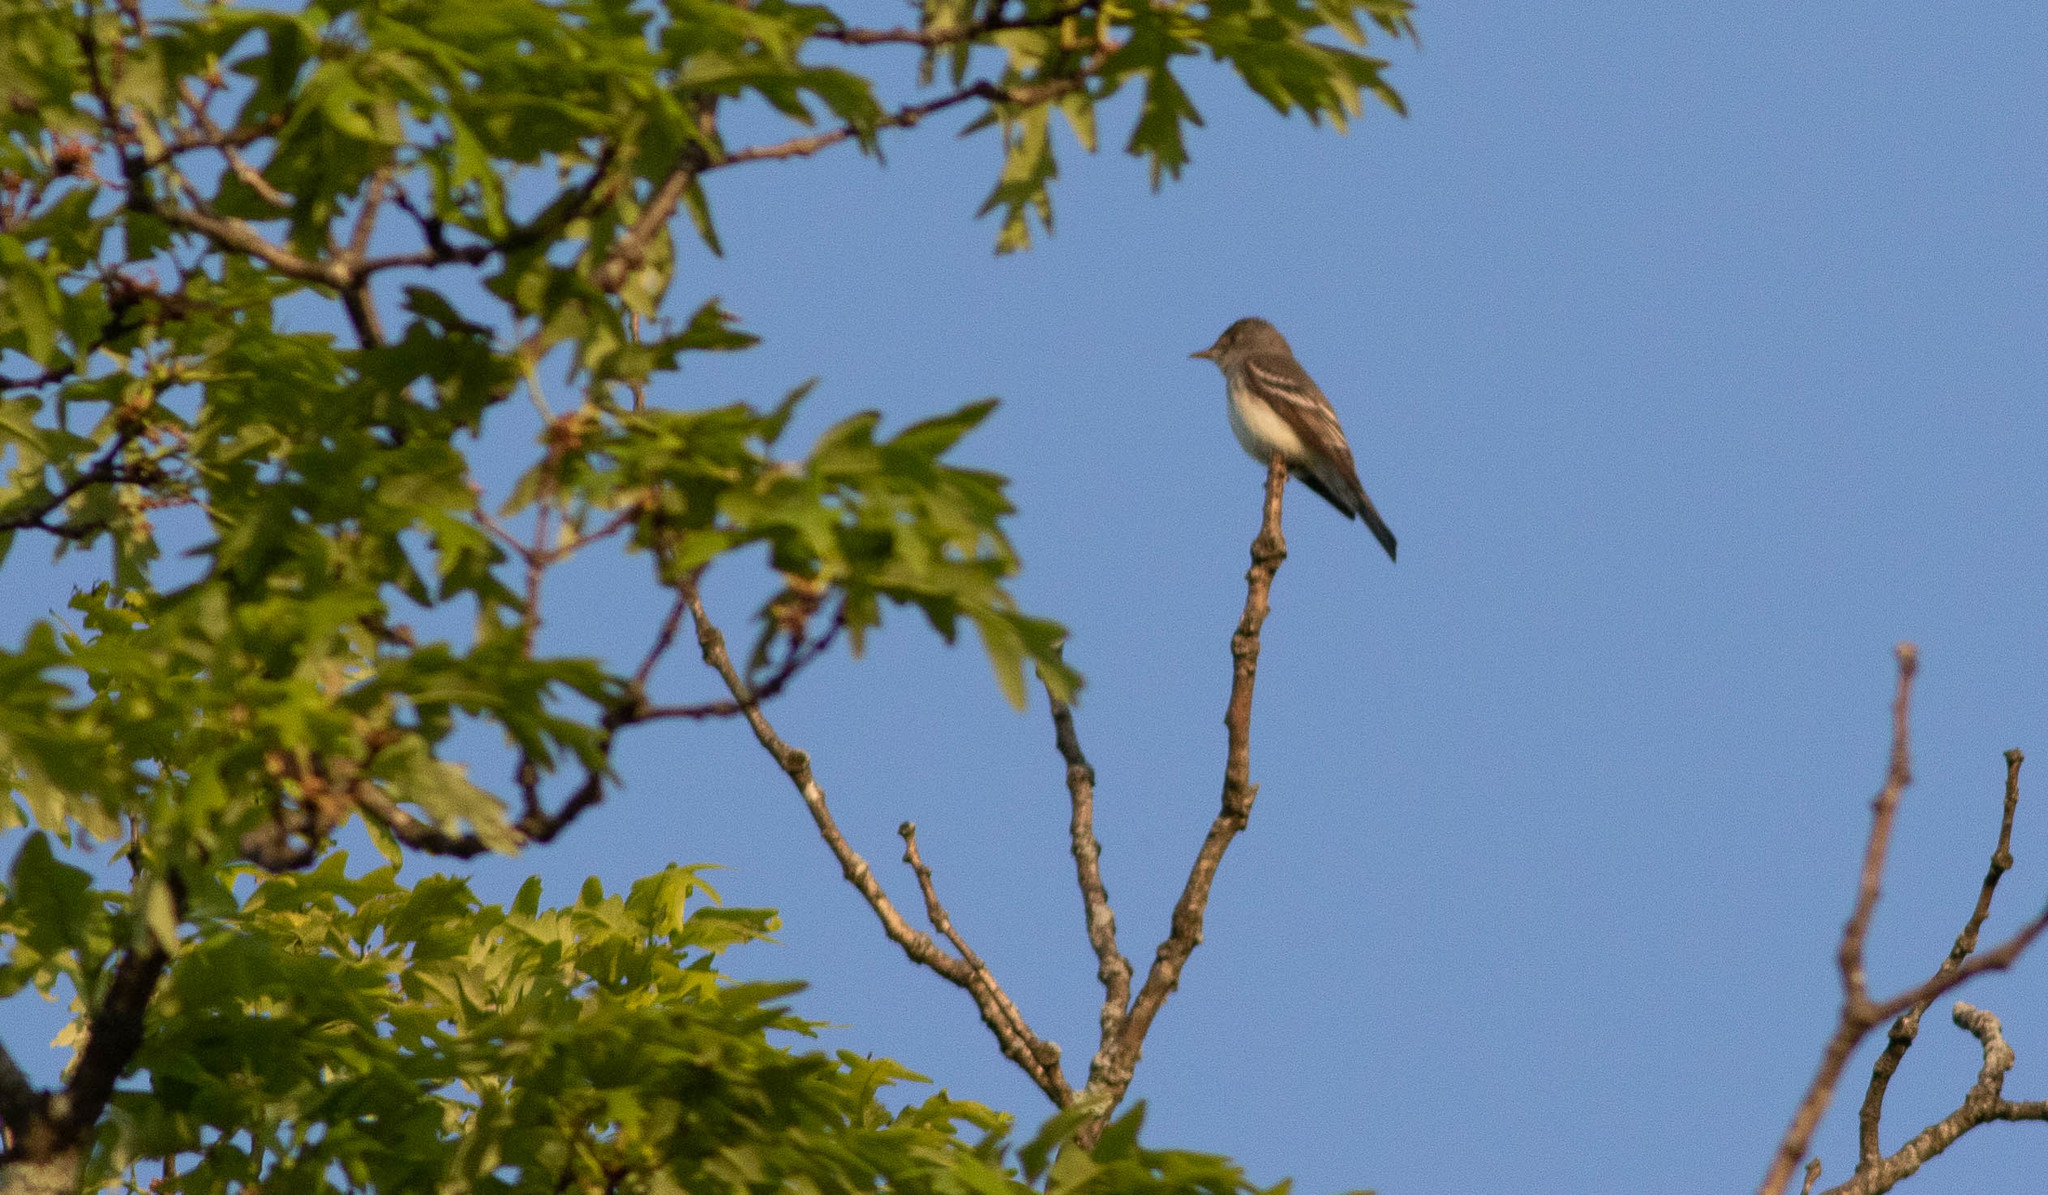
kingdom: Animalia
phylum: Chordata
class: Aves
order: Passeriformes
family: Tyrannidae
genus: Contopus
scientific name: Contopus virens
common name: Eastern wood-pewee
